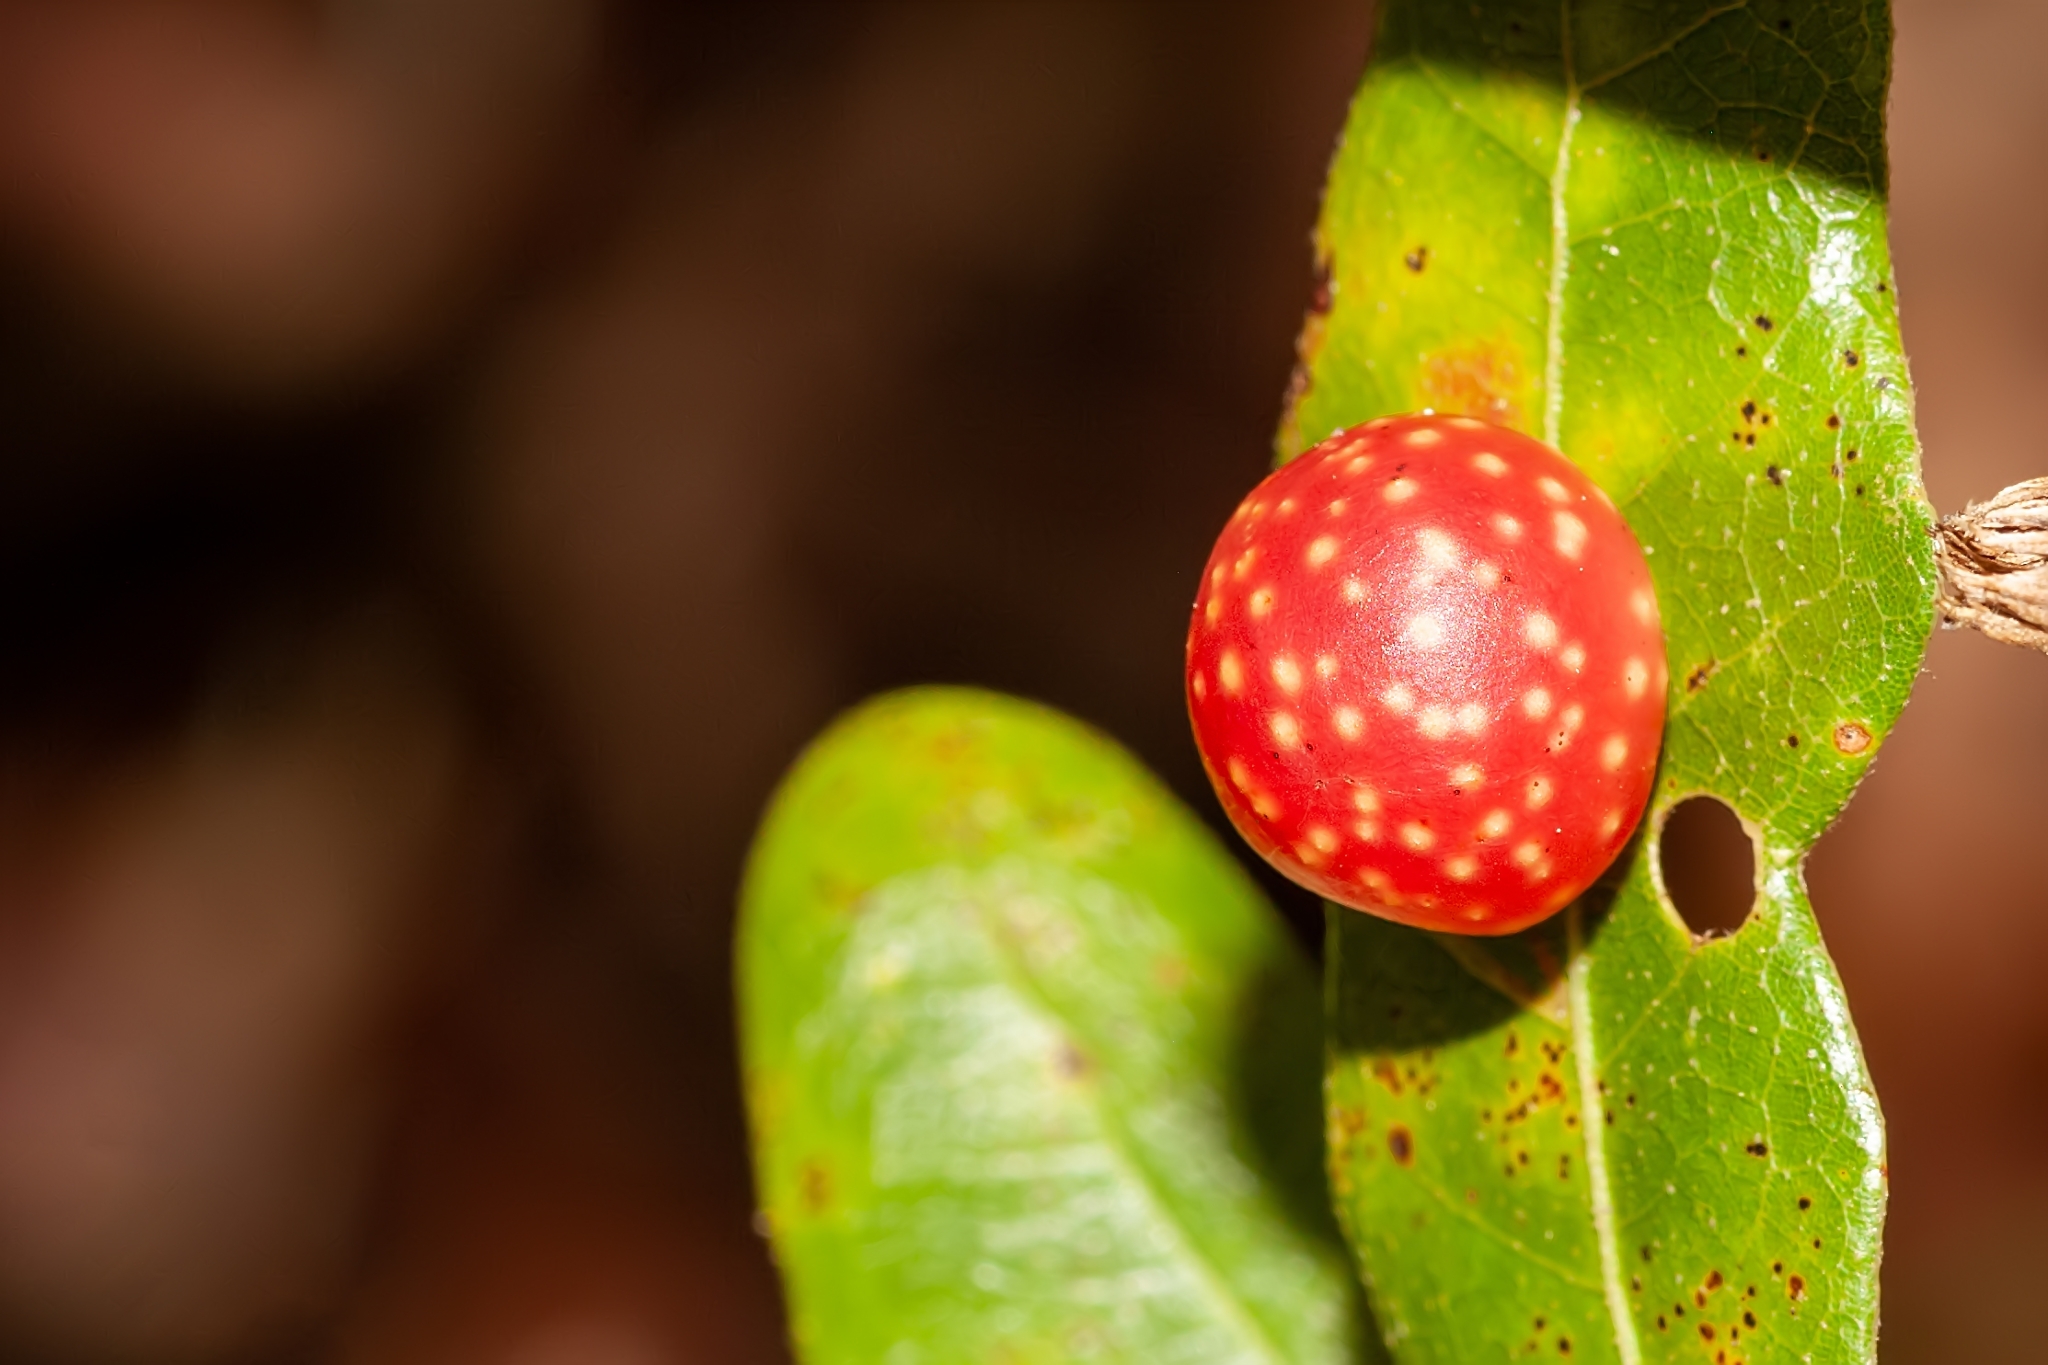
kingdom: Animalia
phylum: Arthropoda
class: Insecta
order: Hymenoptera
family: Cynipidae
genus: Trigonaspis
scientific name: Trigonaspis
